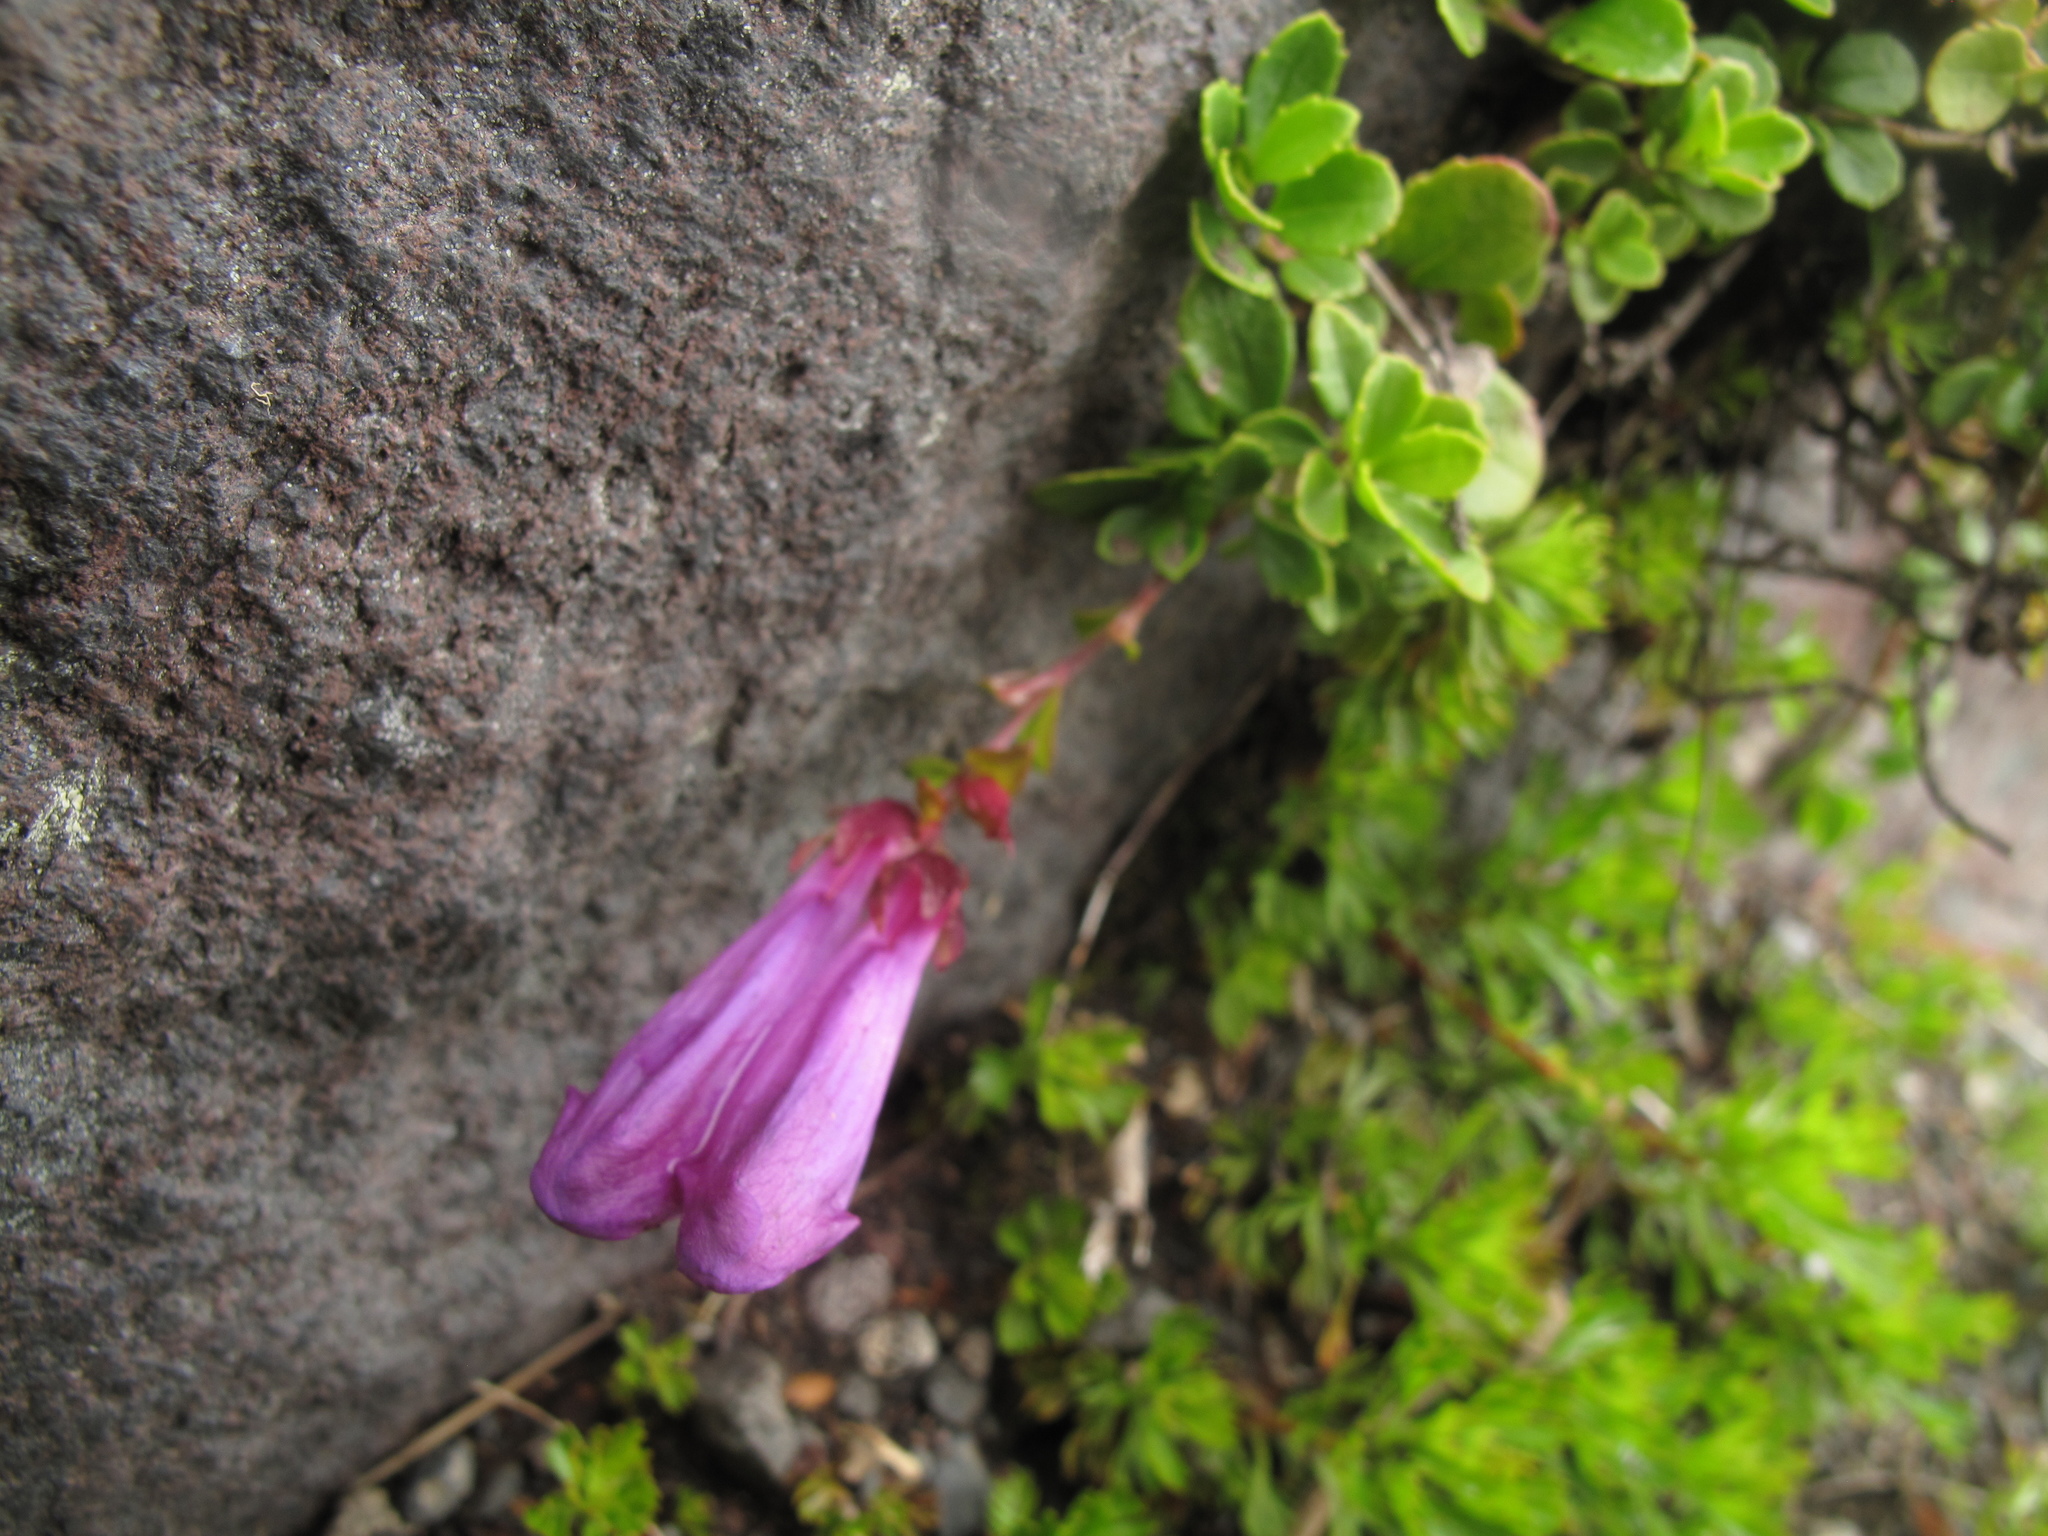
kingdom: Plantae
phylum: Tracheophyta
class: Magnoliopsida
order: Lamiales
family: Plantaginaceae
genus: Penstemon
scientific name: Penstemon davidsonii
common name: Davidson's penstemon
